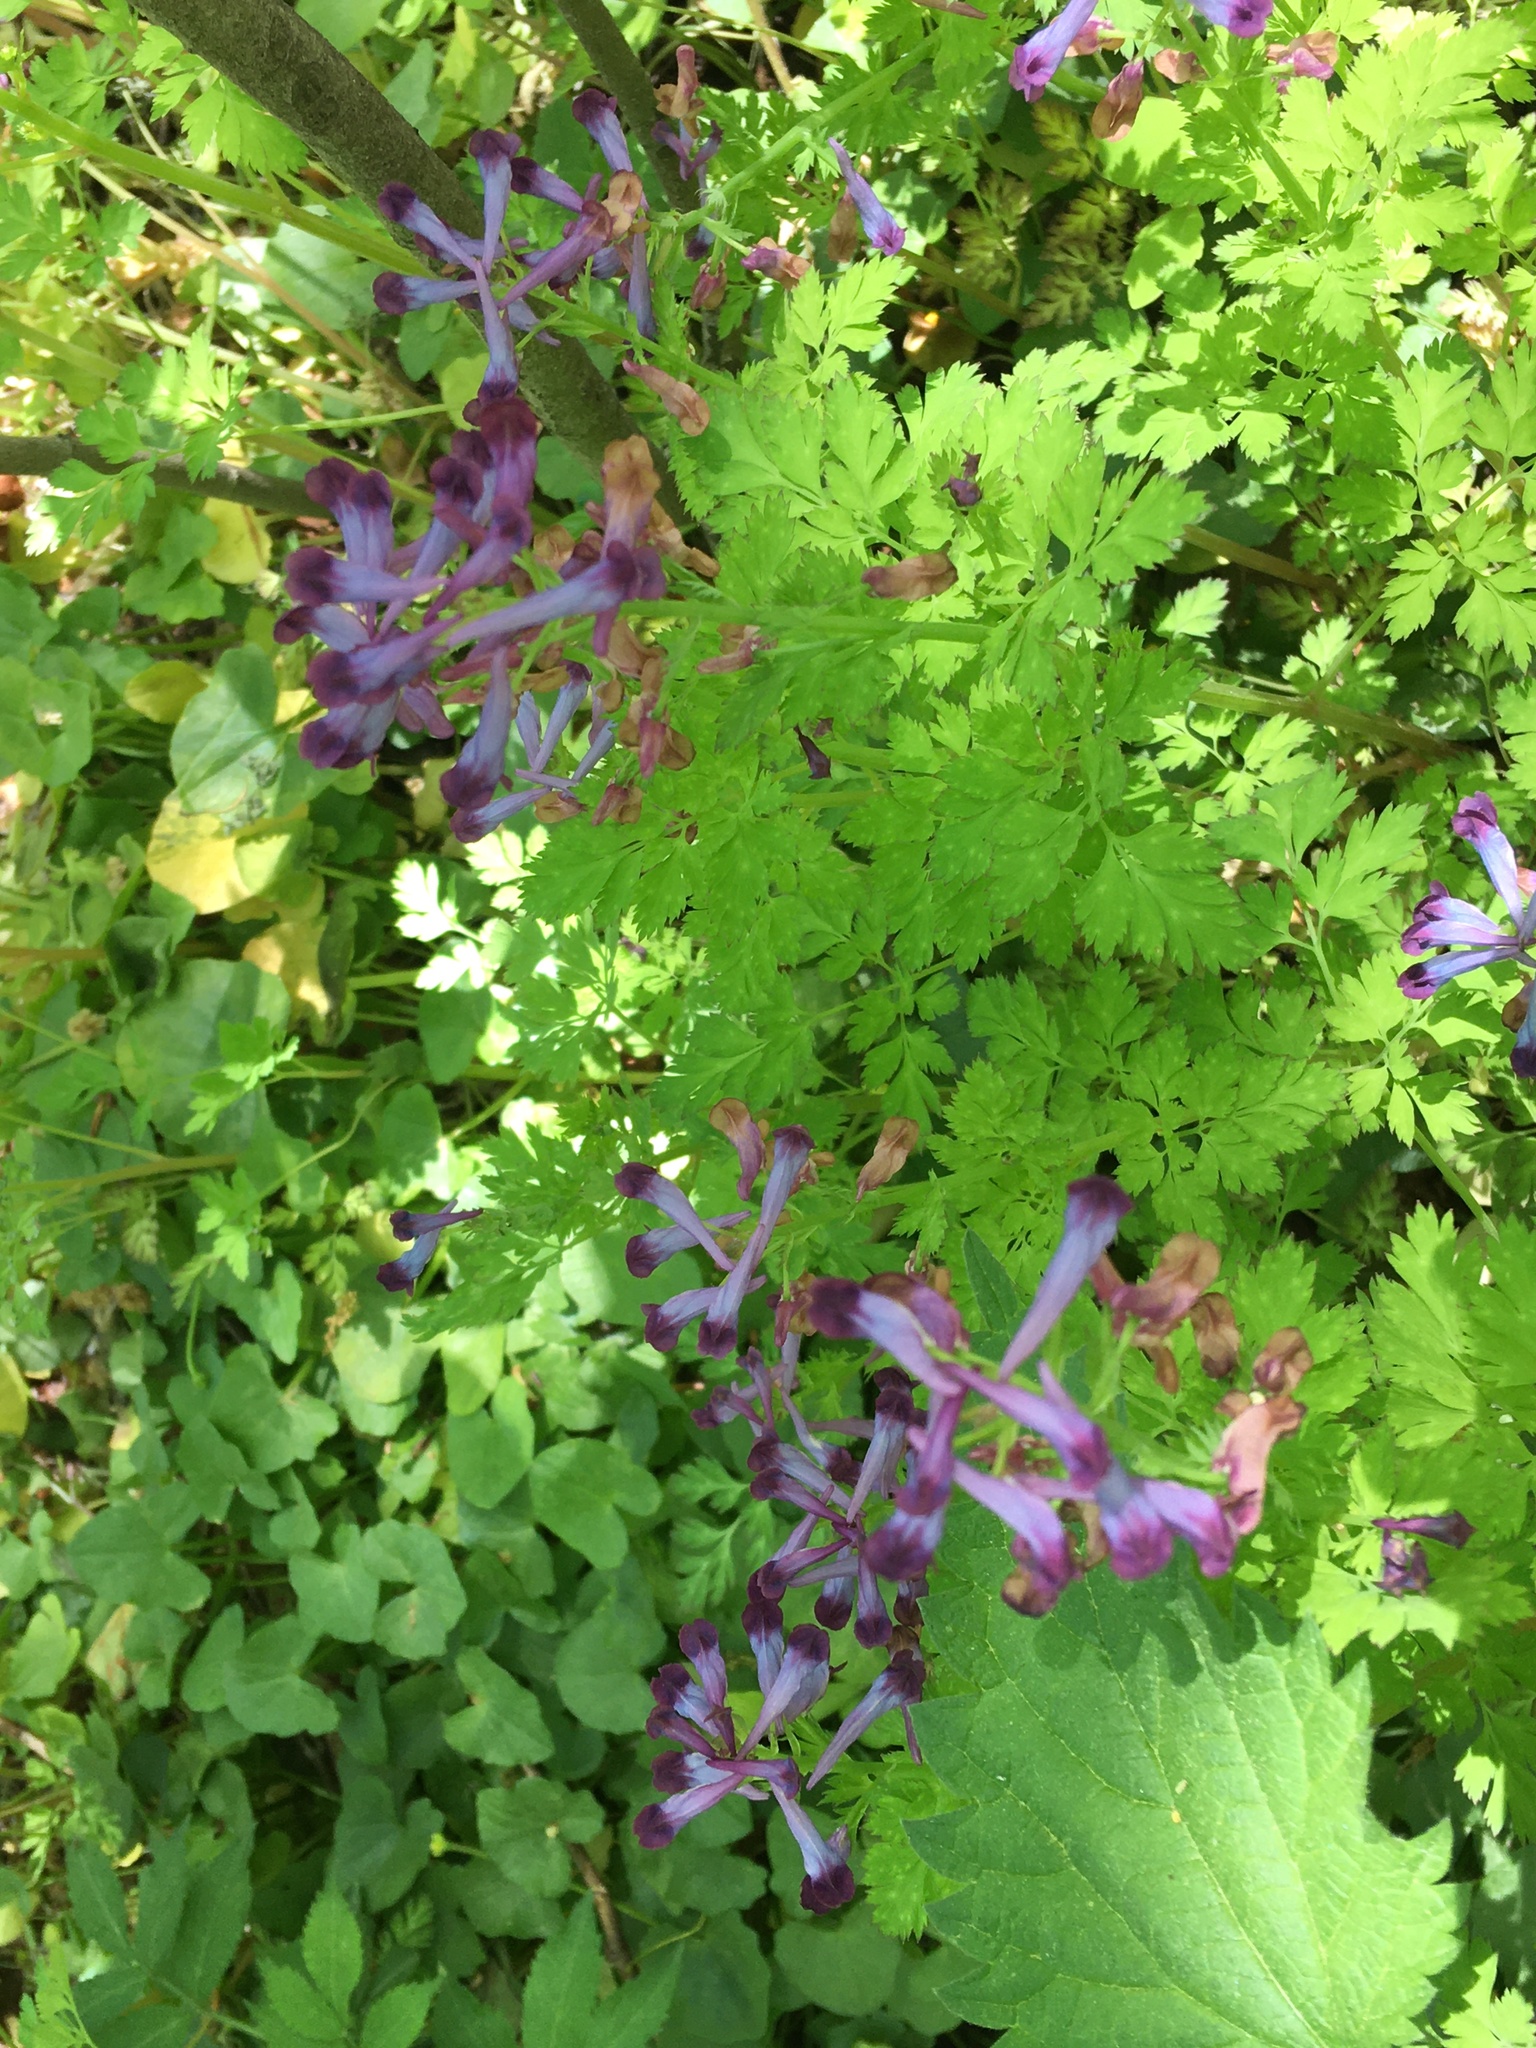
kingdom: Plantae
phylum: Tracheophyta
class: Magnoliopsida
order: Ranunculales
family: Papaveraceae
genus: Corydalis
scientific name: Corydalis incisa
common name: Incised fumewort
